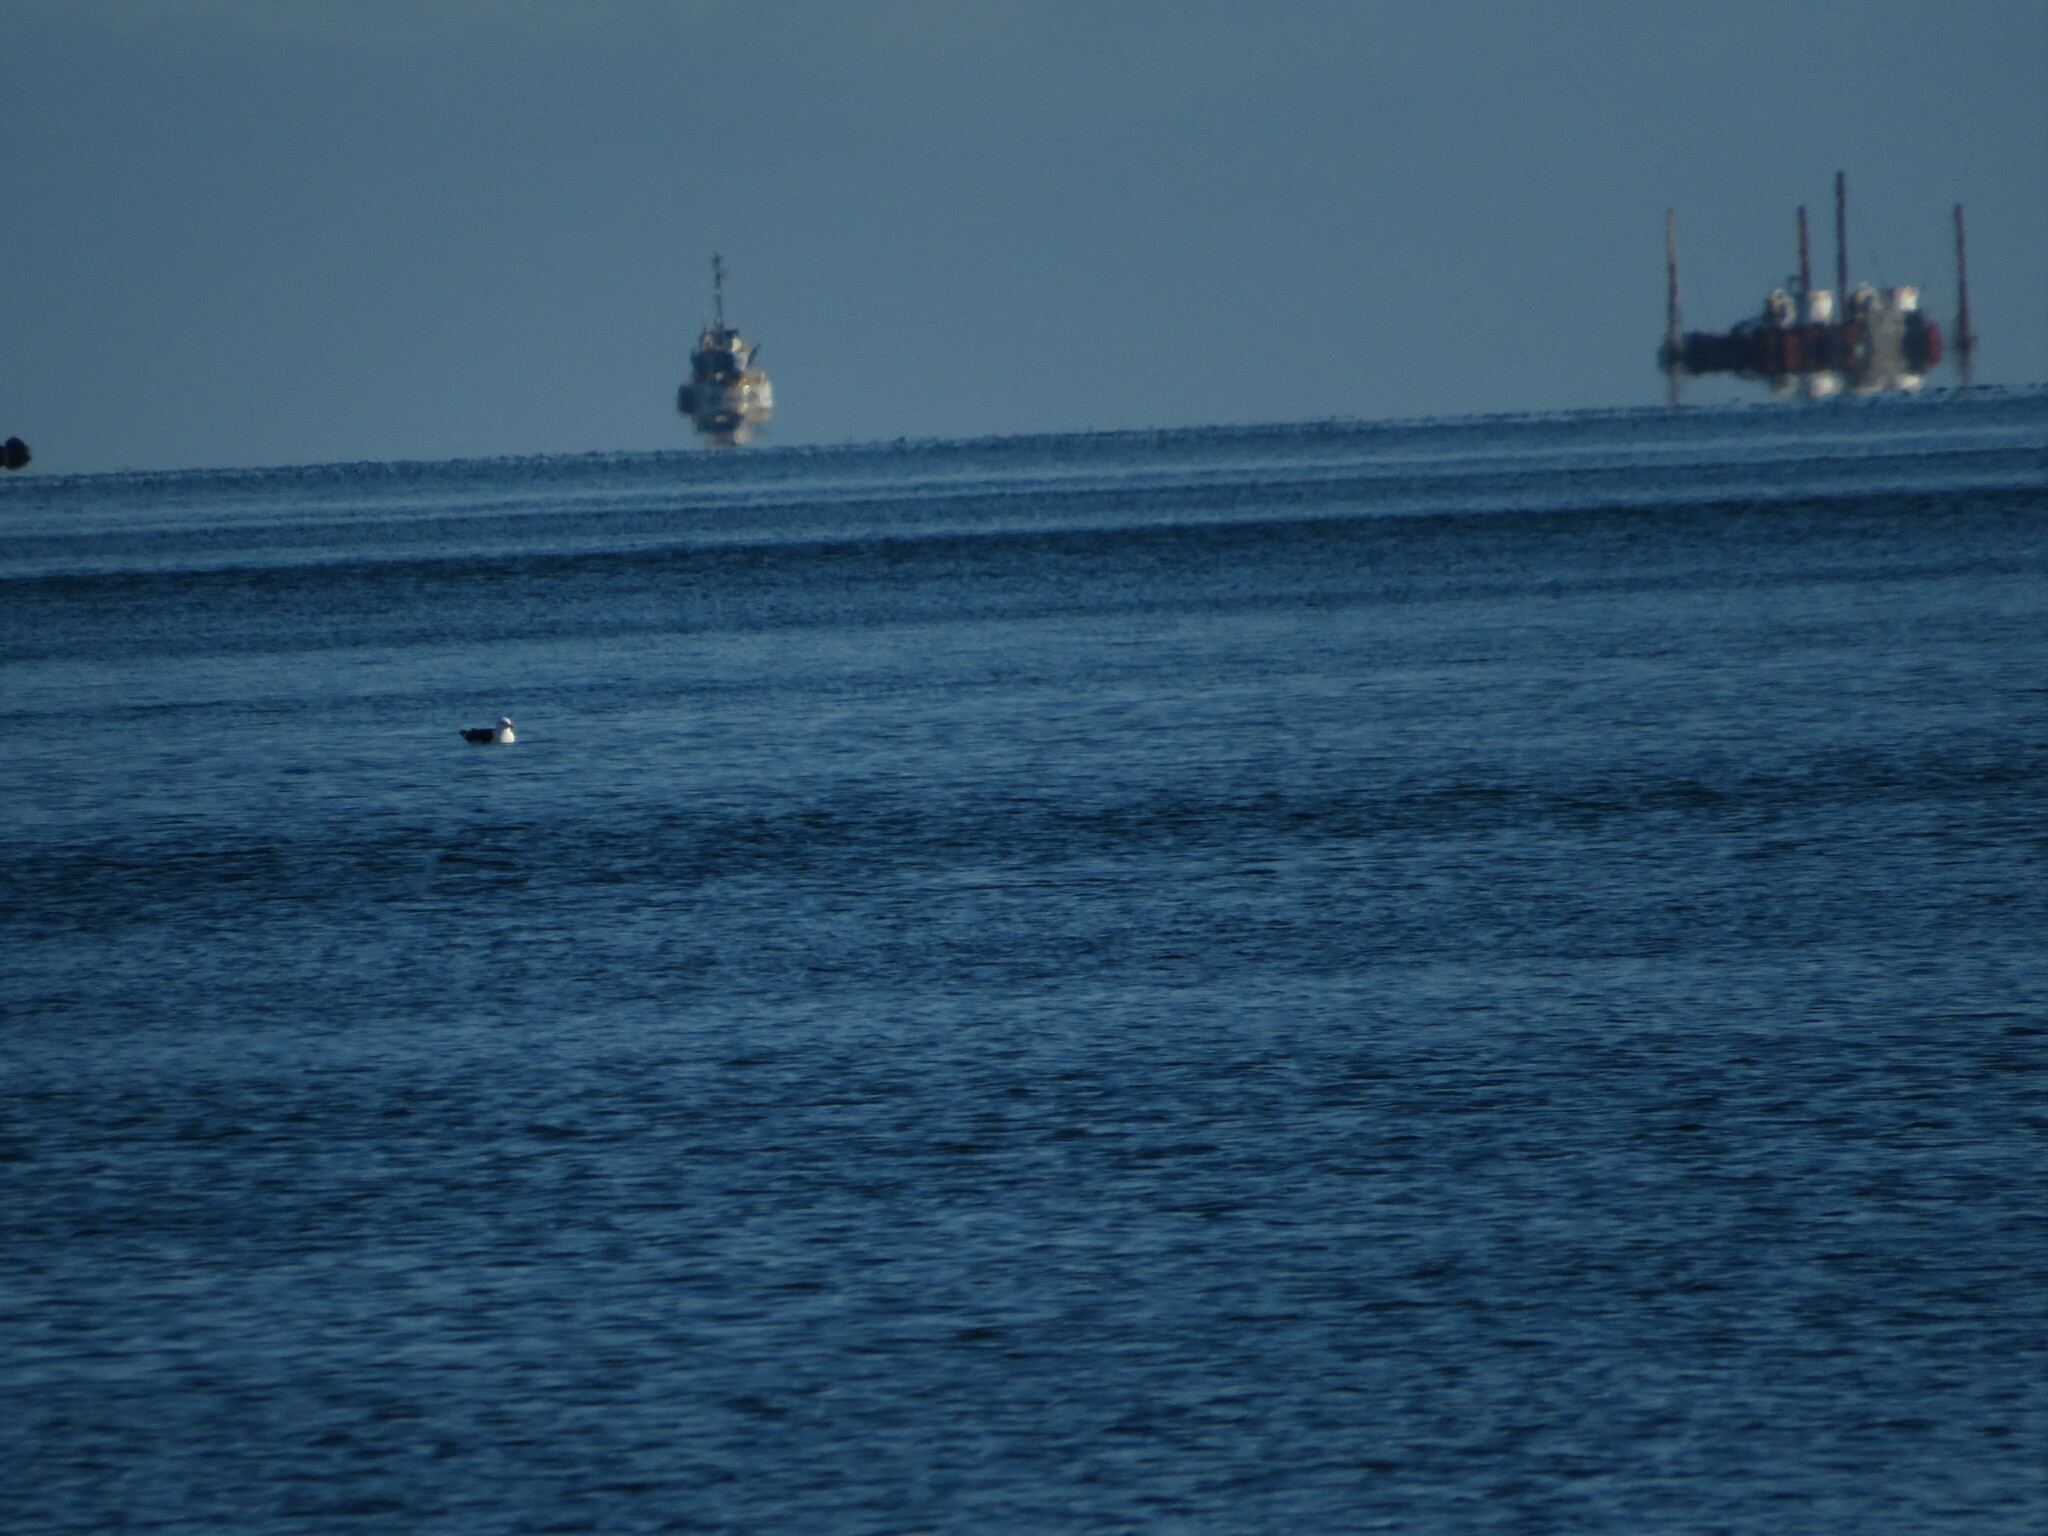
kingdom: Animalia
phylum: Chordata
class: Aves
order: Charadriiformes
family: Laridae
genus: Larus
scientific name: Larus marinus
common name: Great black-backed gull
